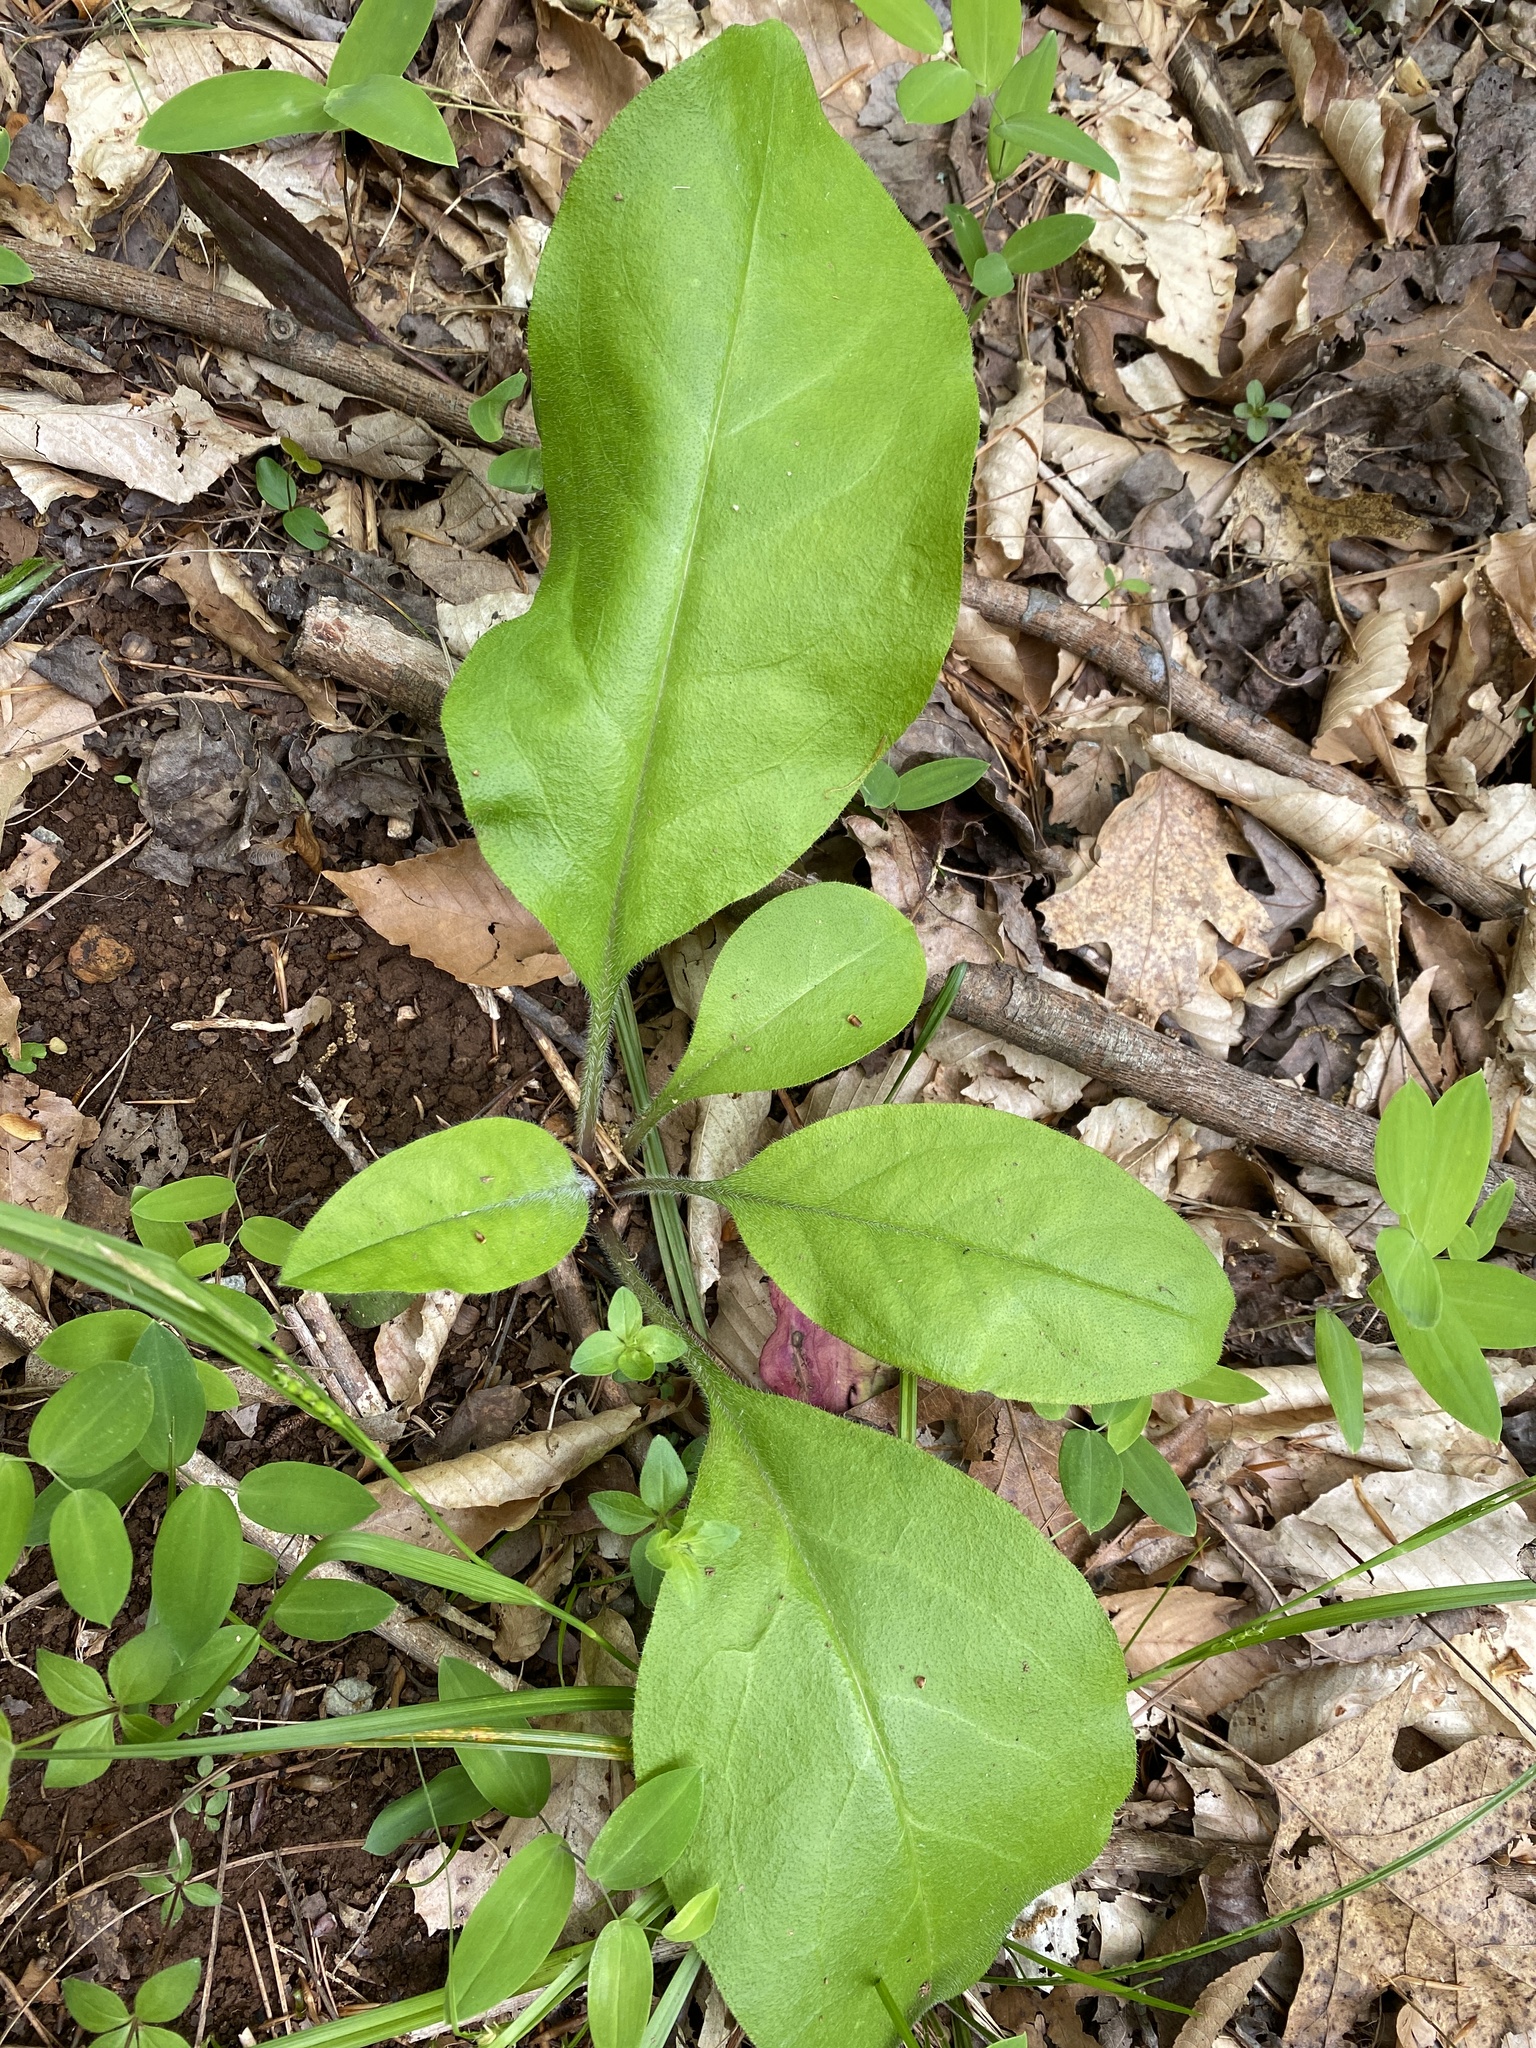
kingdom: Plantae
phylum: Tracheophyta
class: Magnoliopsida
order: Boraginales
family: Boraginaceae
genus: Andersonglossum
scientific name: Andersonglossum virginianum
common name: Wild comfrey
